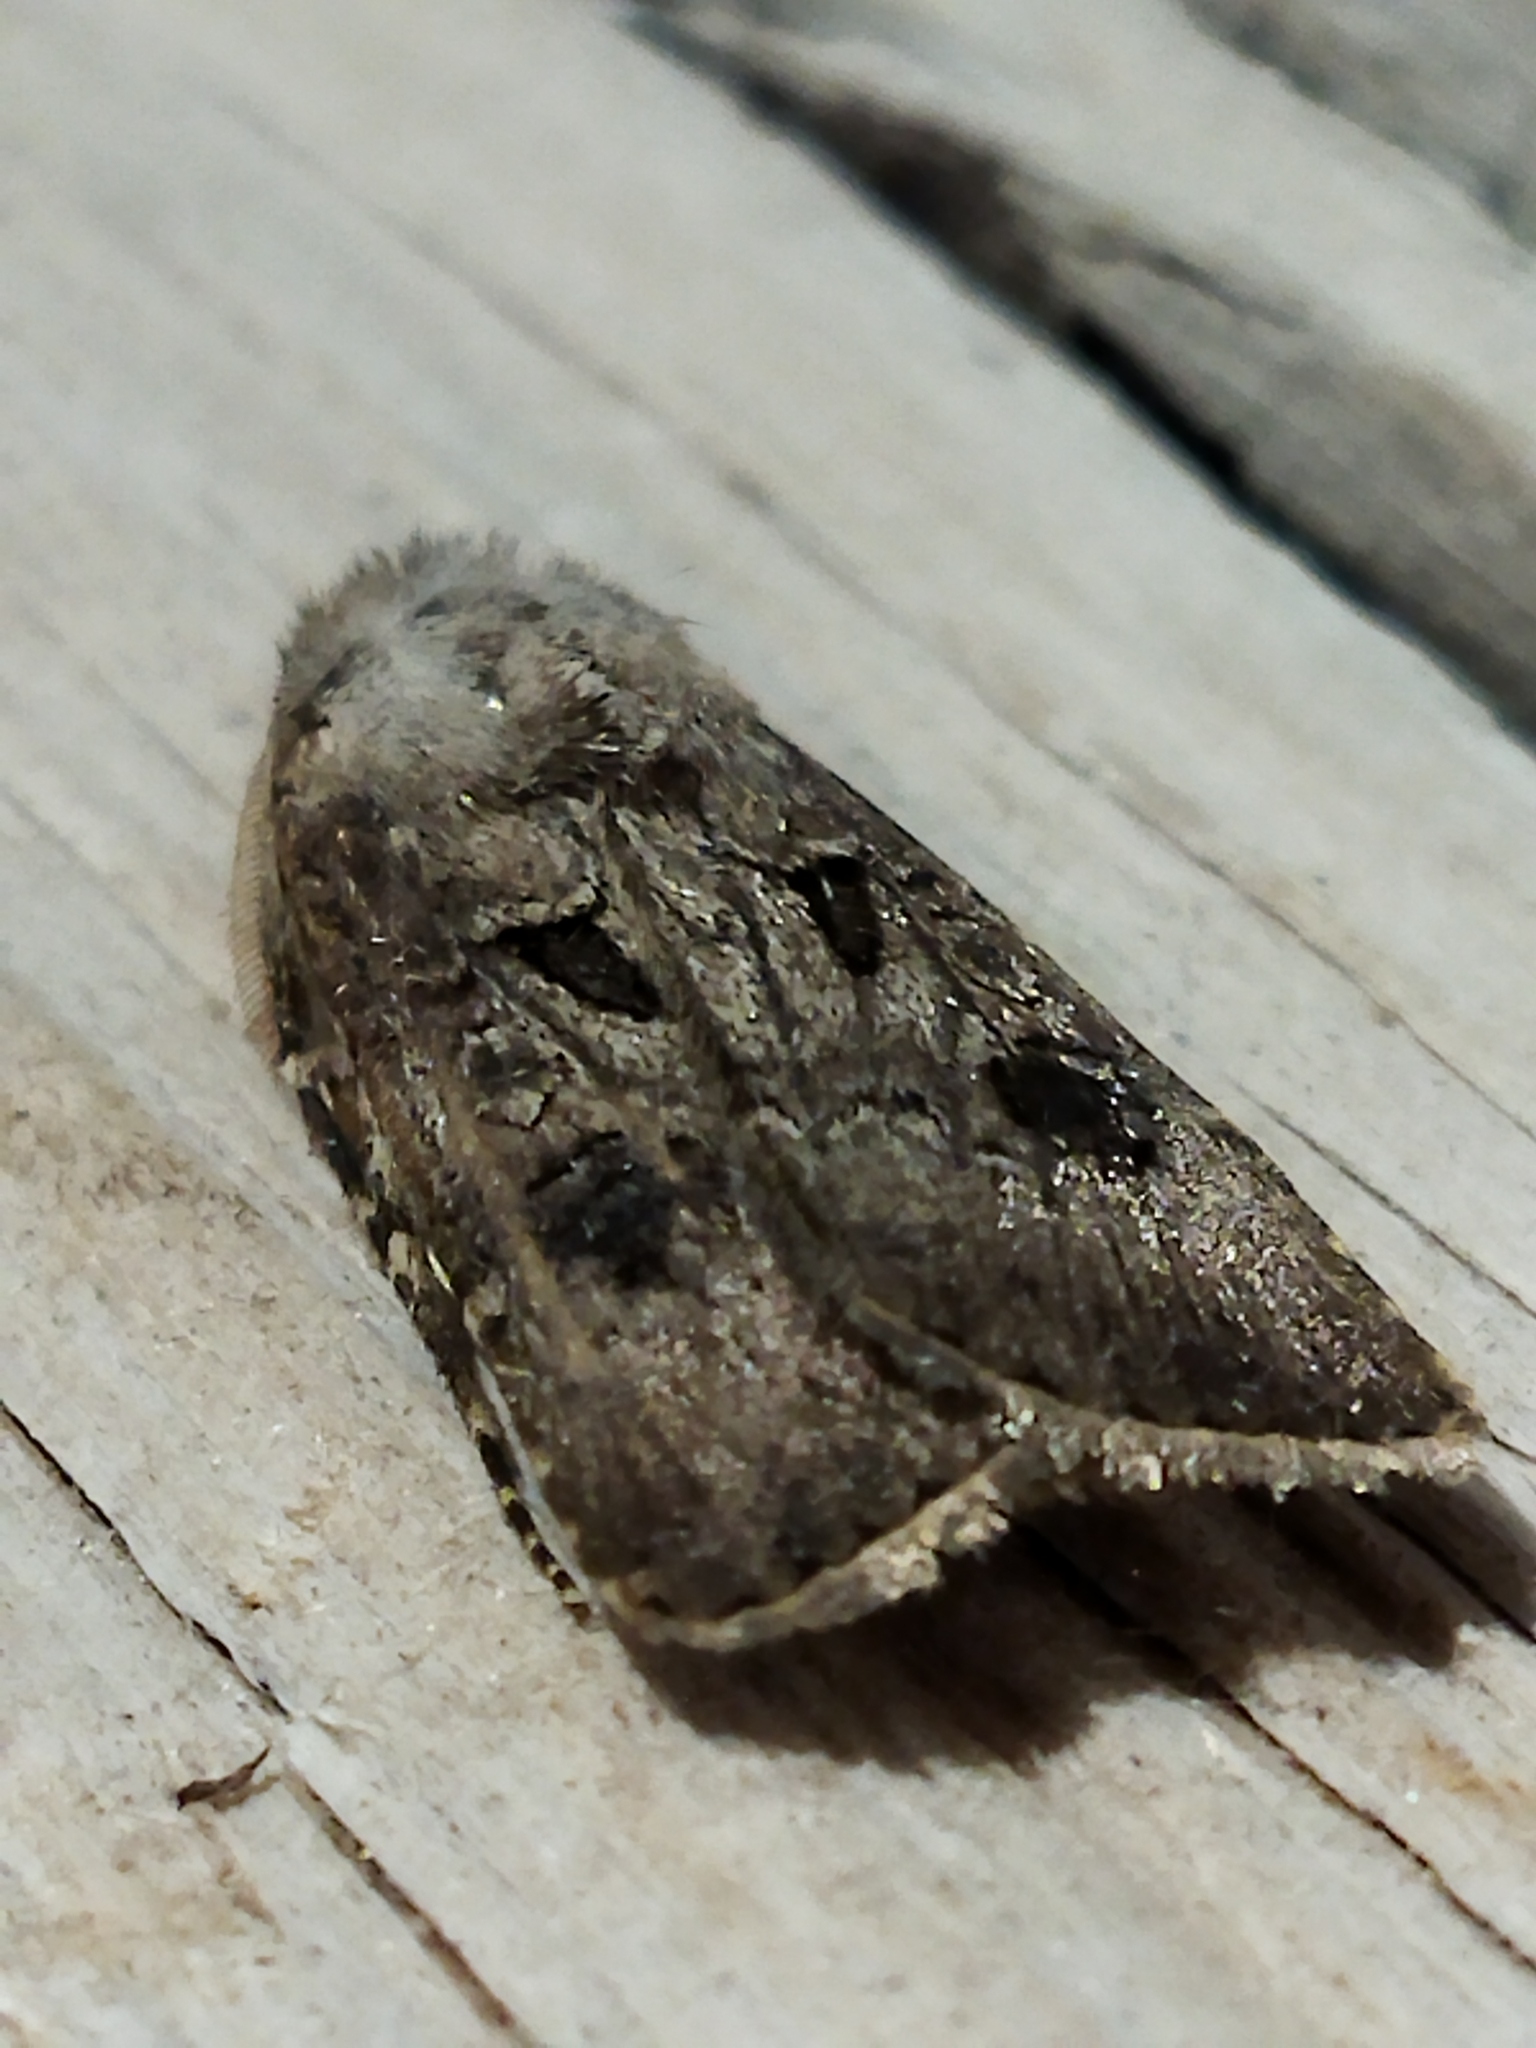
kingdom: Animalia
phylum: Arthropoda
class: Insecta
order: Lepidoptera
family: Noctuidae
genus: Agrotis
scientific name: Agrotis bigramma
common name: Great dart
